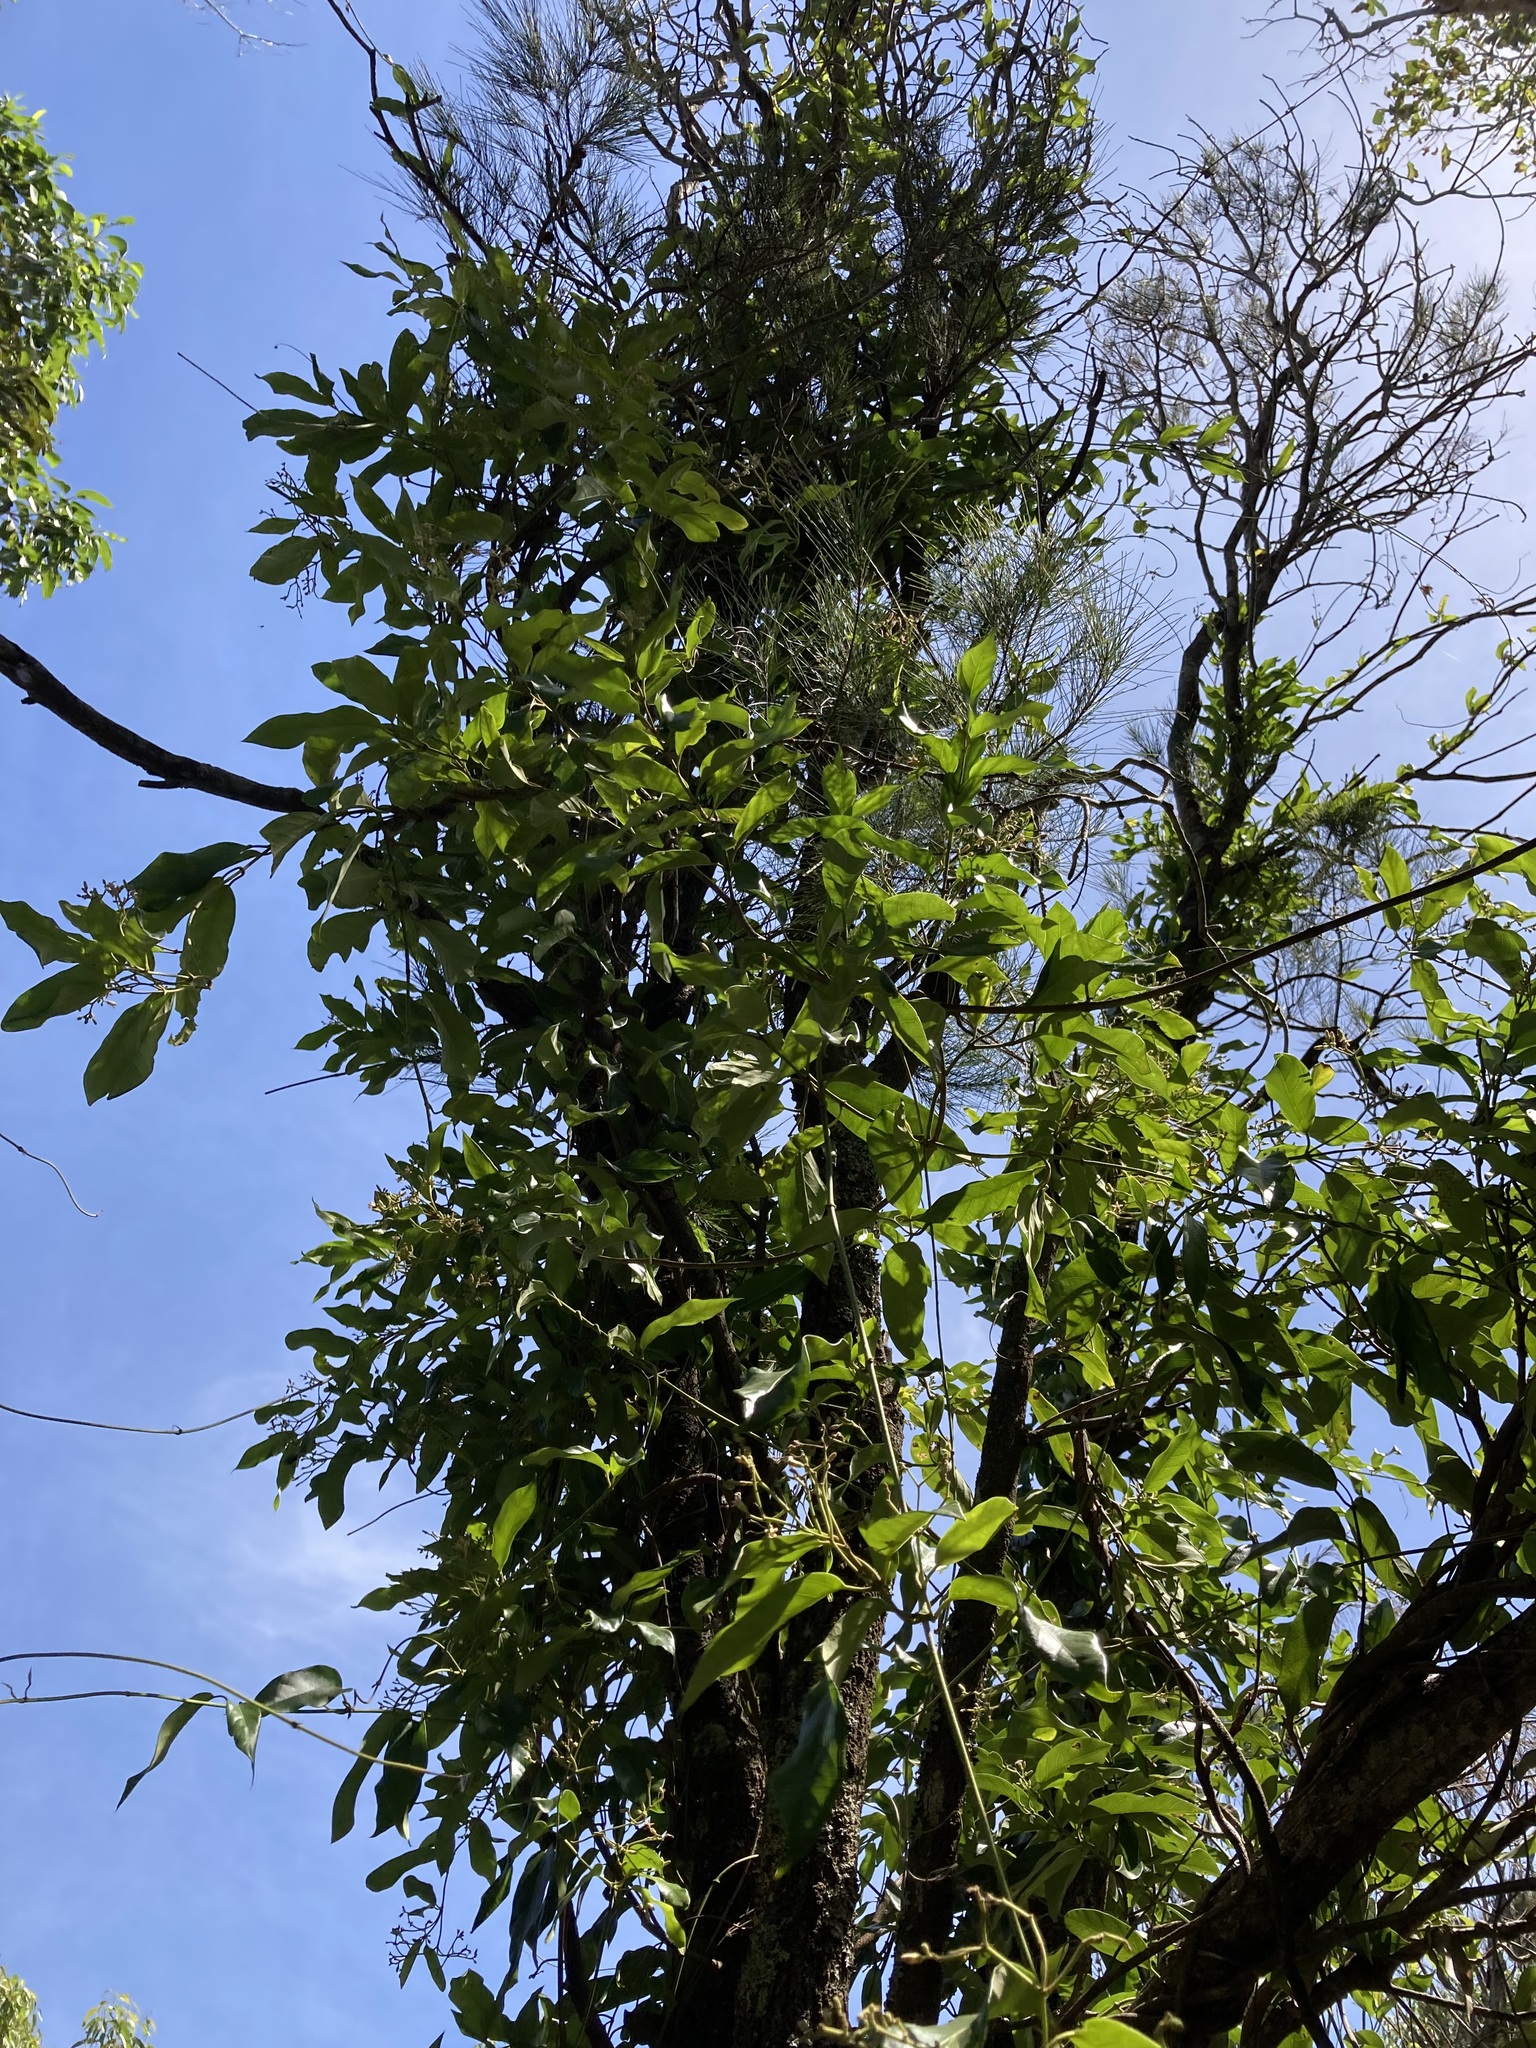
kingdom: Plantae
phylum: Tracheophyta
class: Magnoliopsida
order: Gentianales
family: Apocynaceae
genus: Parsonsia
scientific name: Parsonsia straminea
